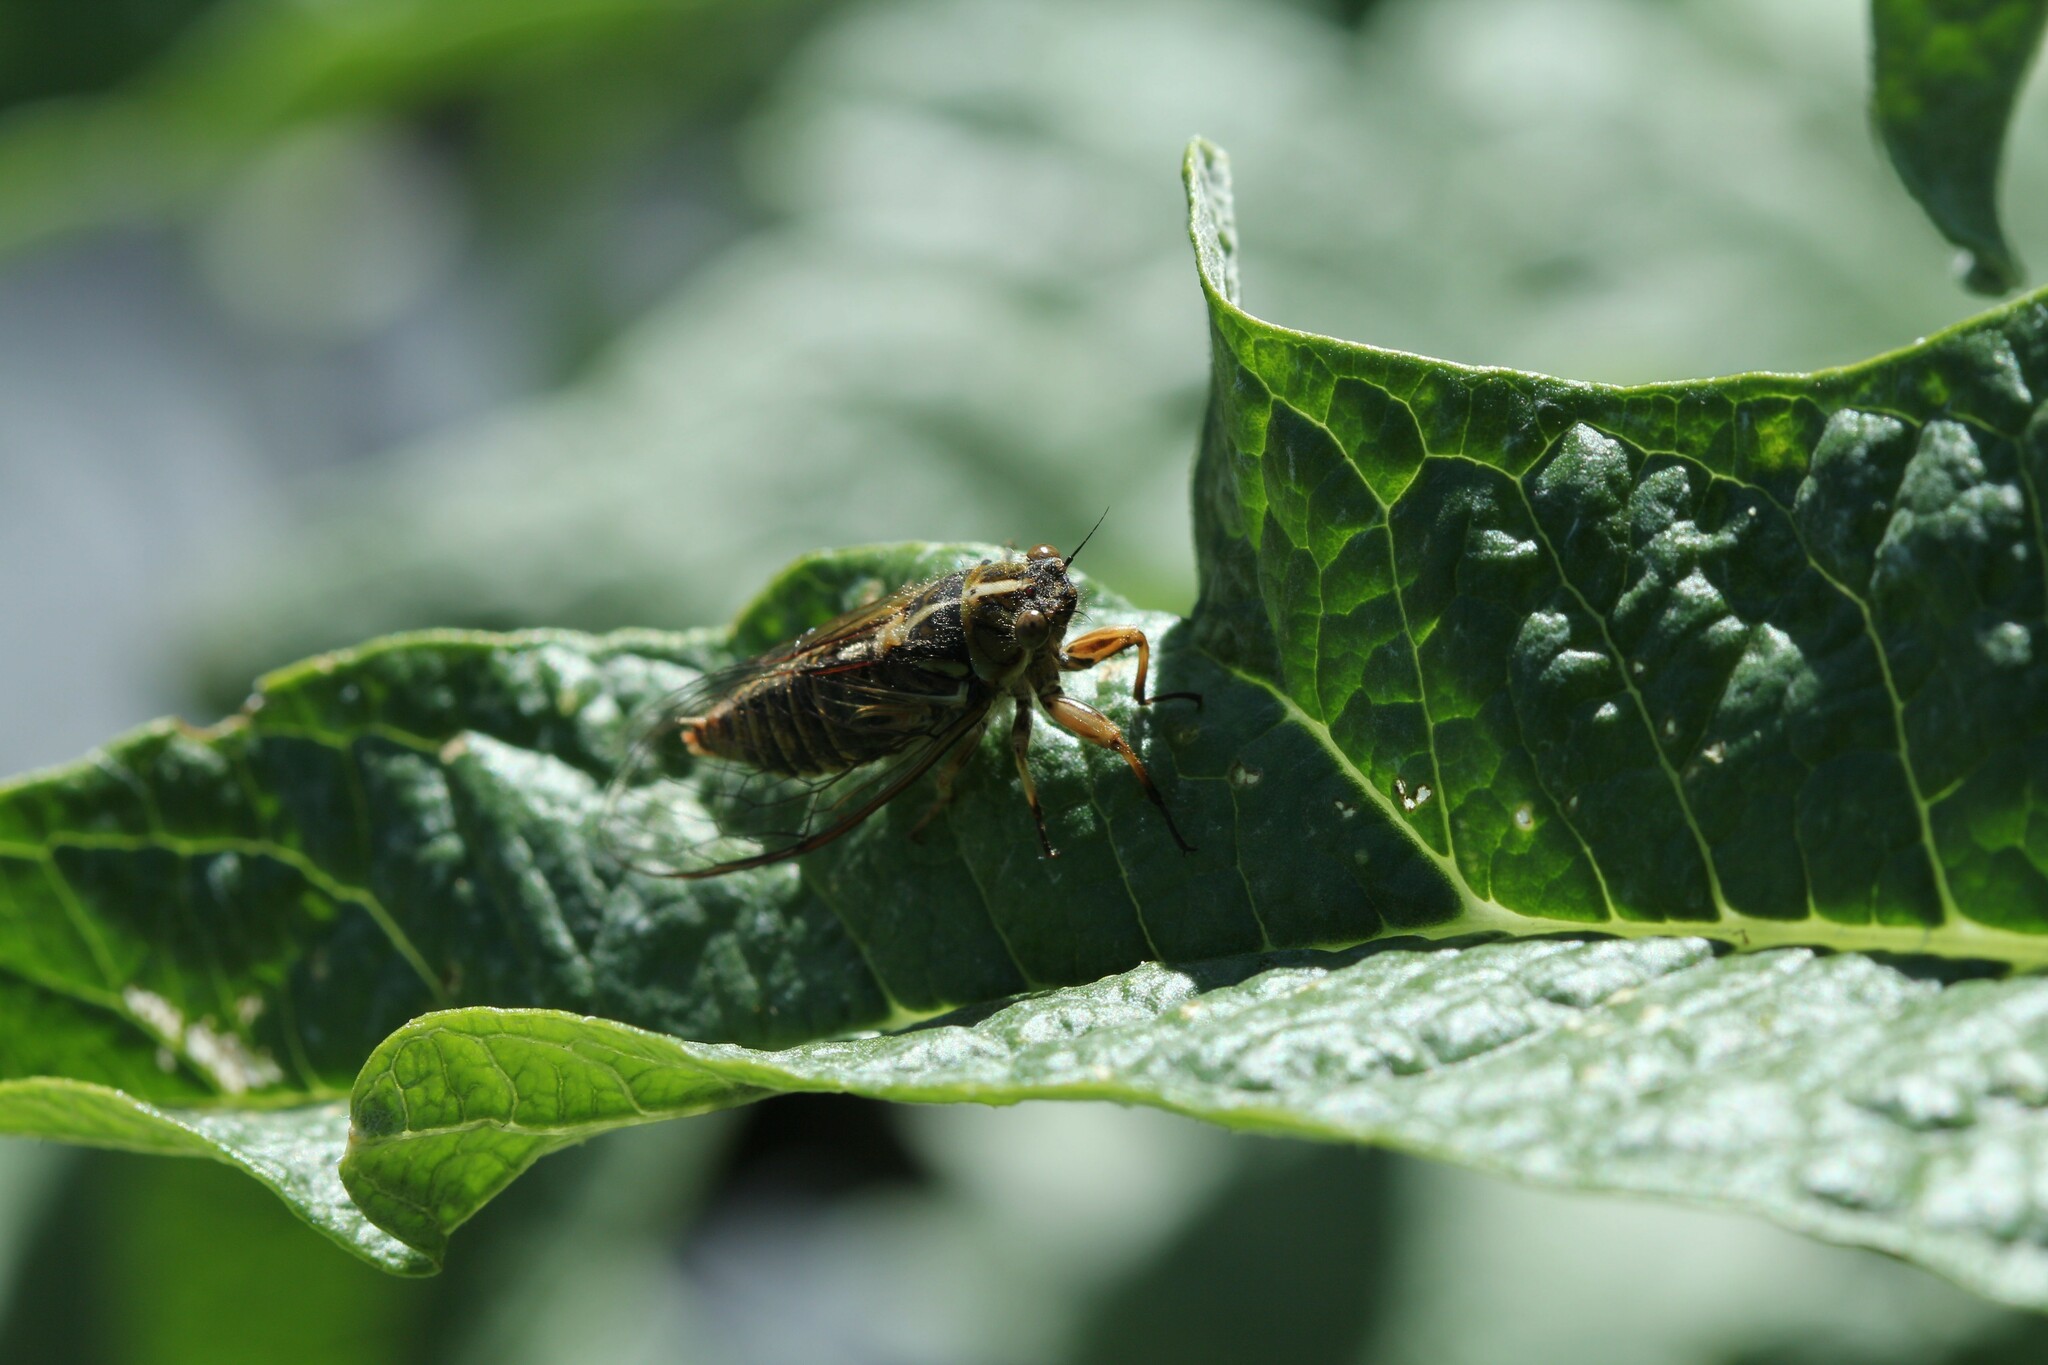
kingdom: Animalia
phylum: Arthropoda
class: Insecta
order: Hemiptera
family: Cicadidae
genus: Kikihia
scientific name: Kikihia muta
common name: Variable cicada
